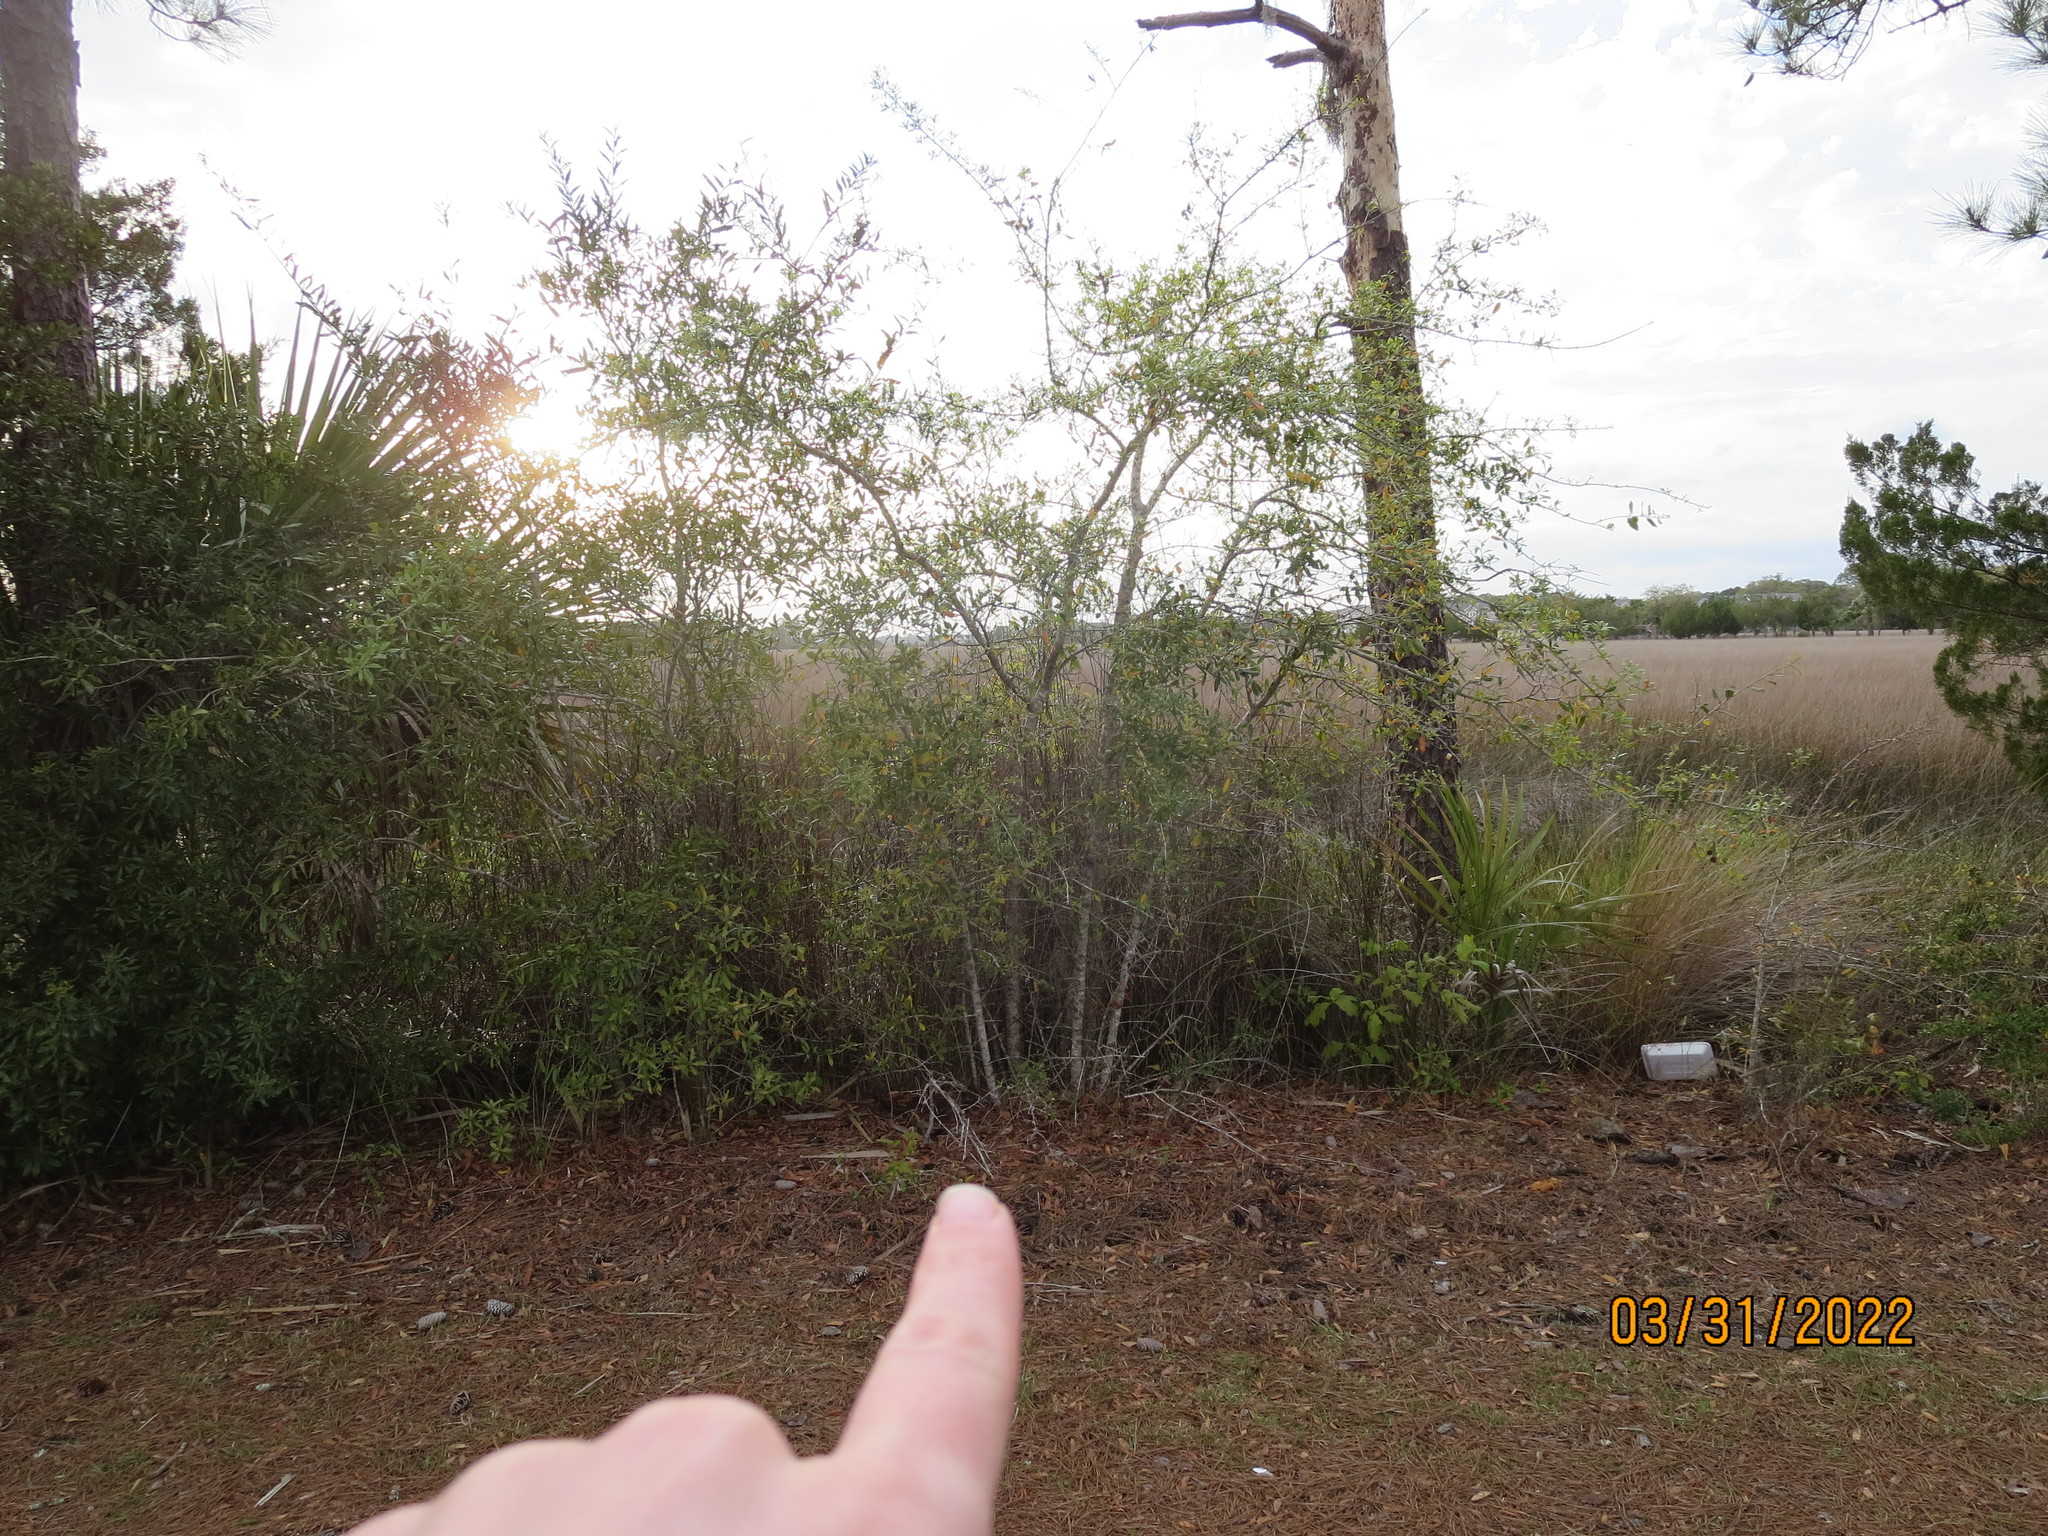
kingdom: Plantae
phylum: Tracheophyta
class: Magnoliopsida
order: Fagales
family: Fagaceae
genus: Quercus
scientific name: Quercus virginiana
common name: Southern live oak
